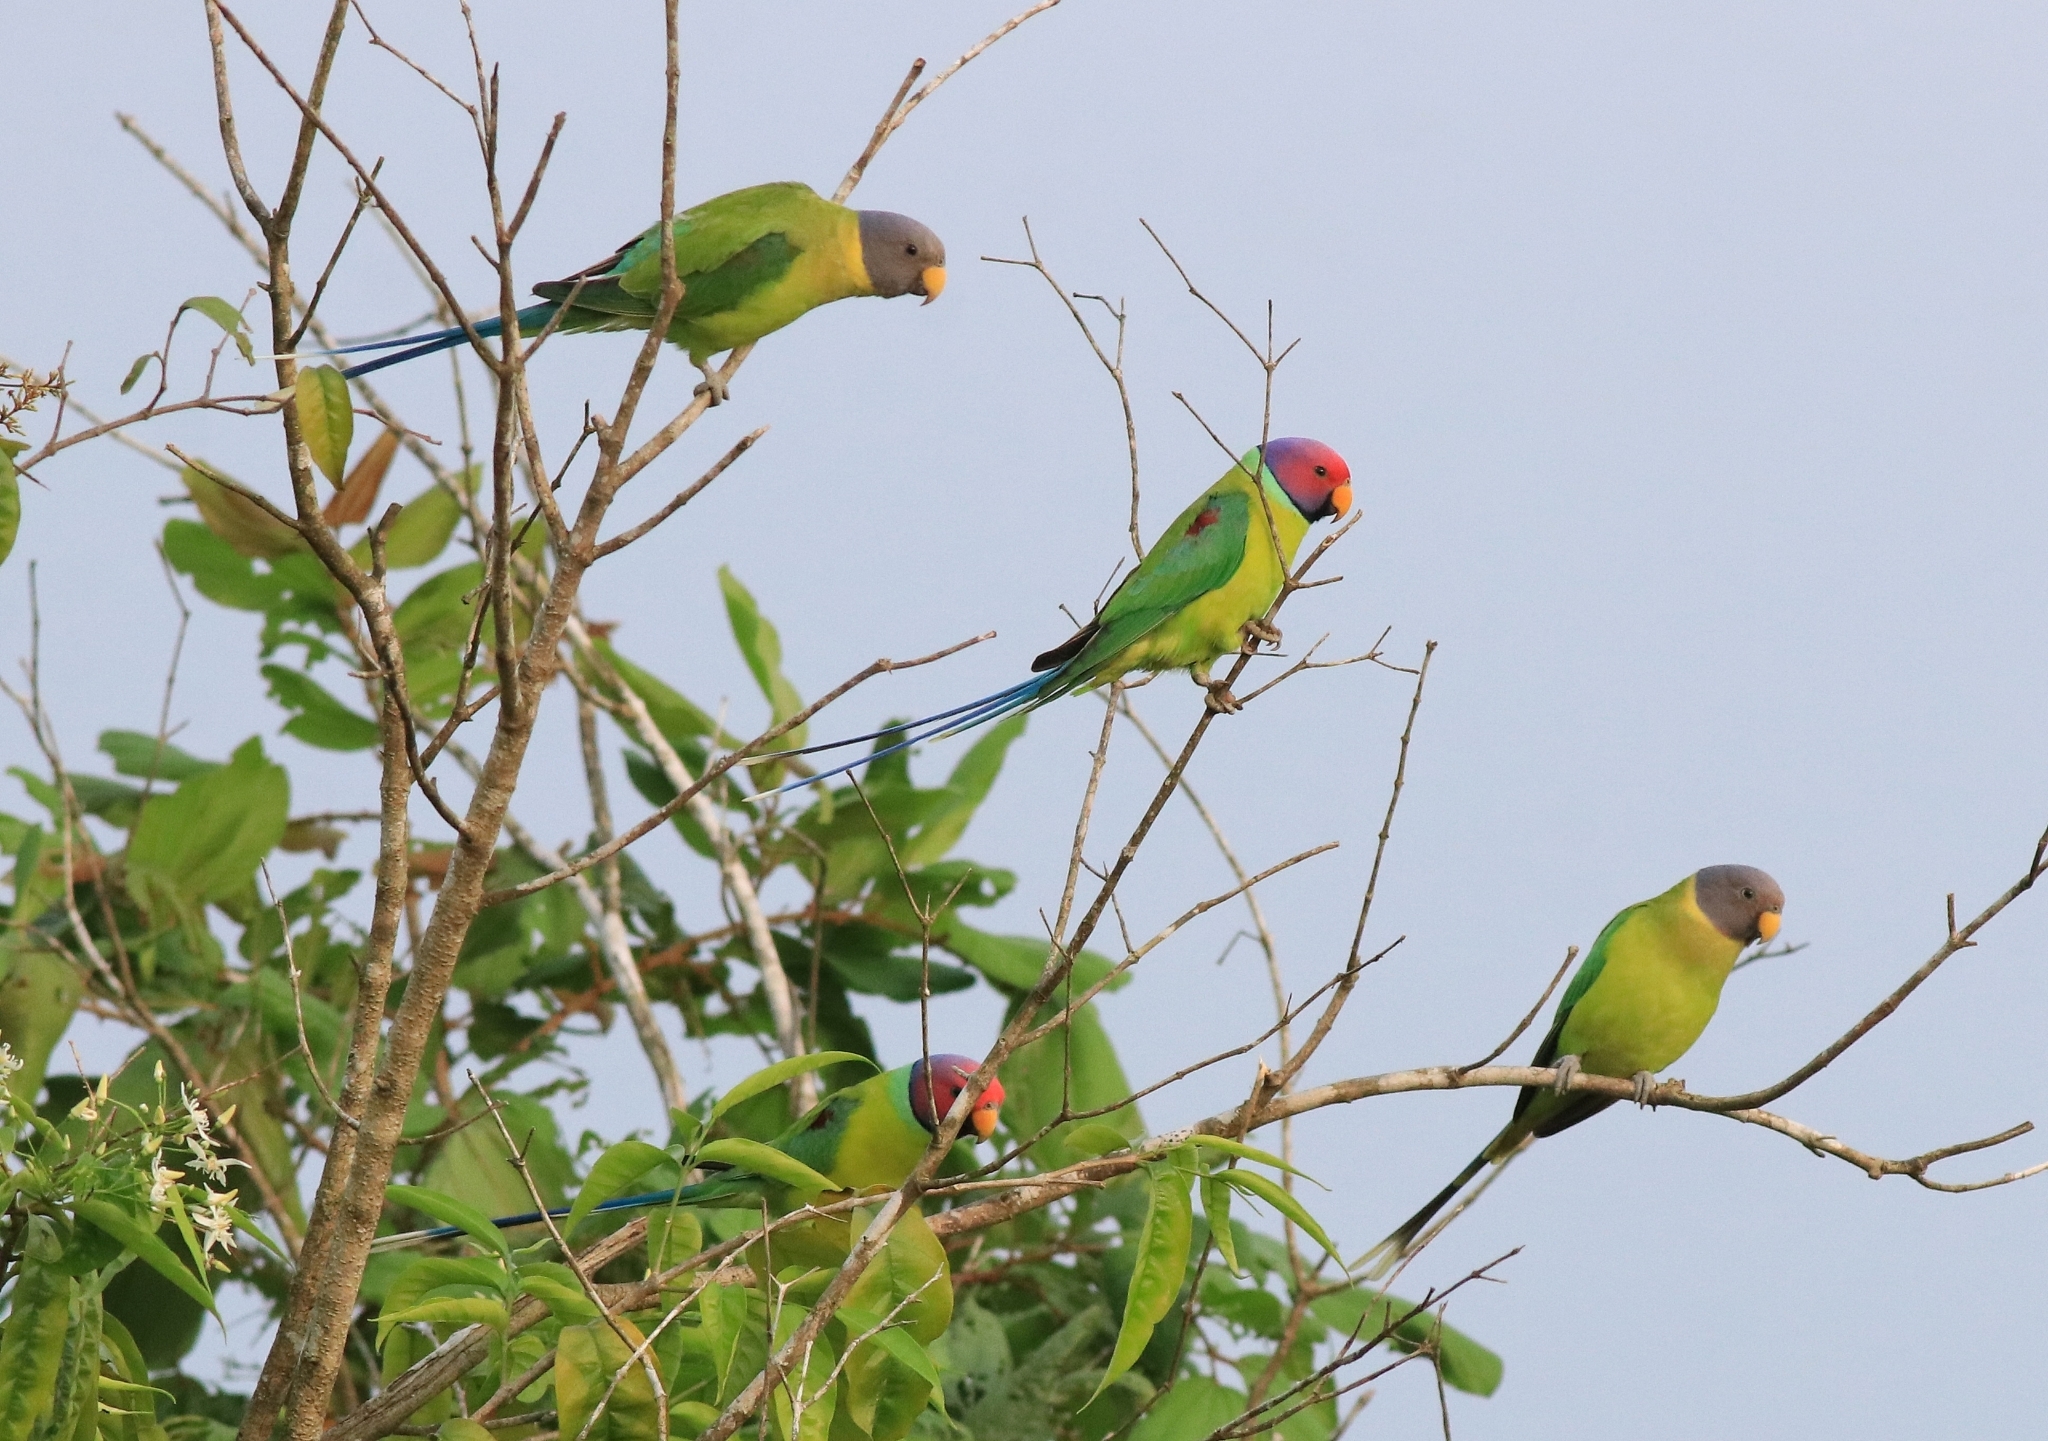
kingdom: Animalia
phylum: Chordata
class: Aves
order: Psittaciformes
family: Psittacidae
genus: Psittacula
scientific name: Psittacula cyanocephala
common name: Plum-headed parakeet
